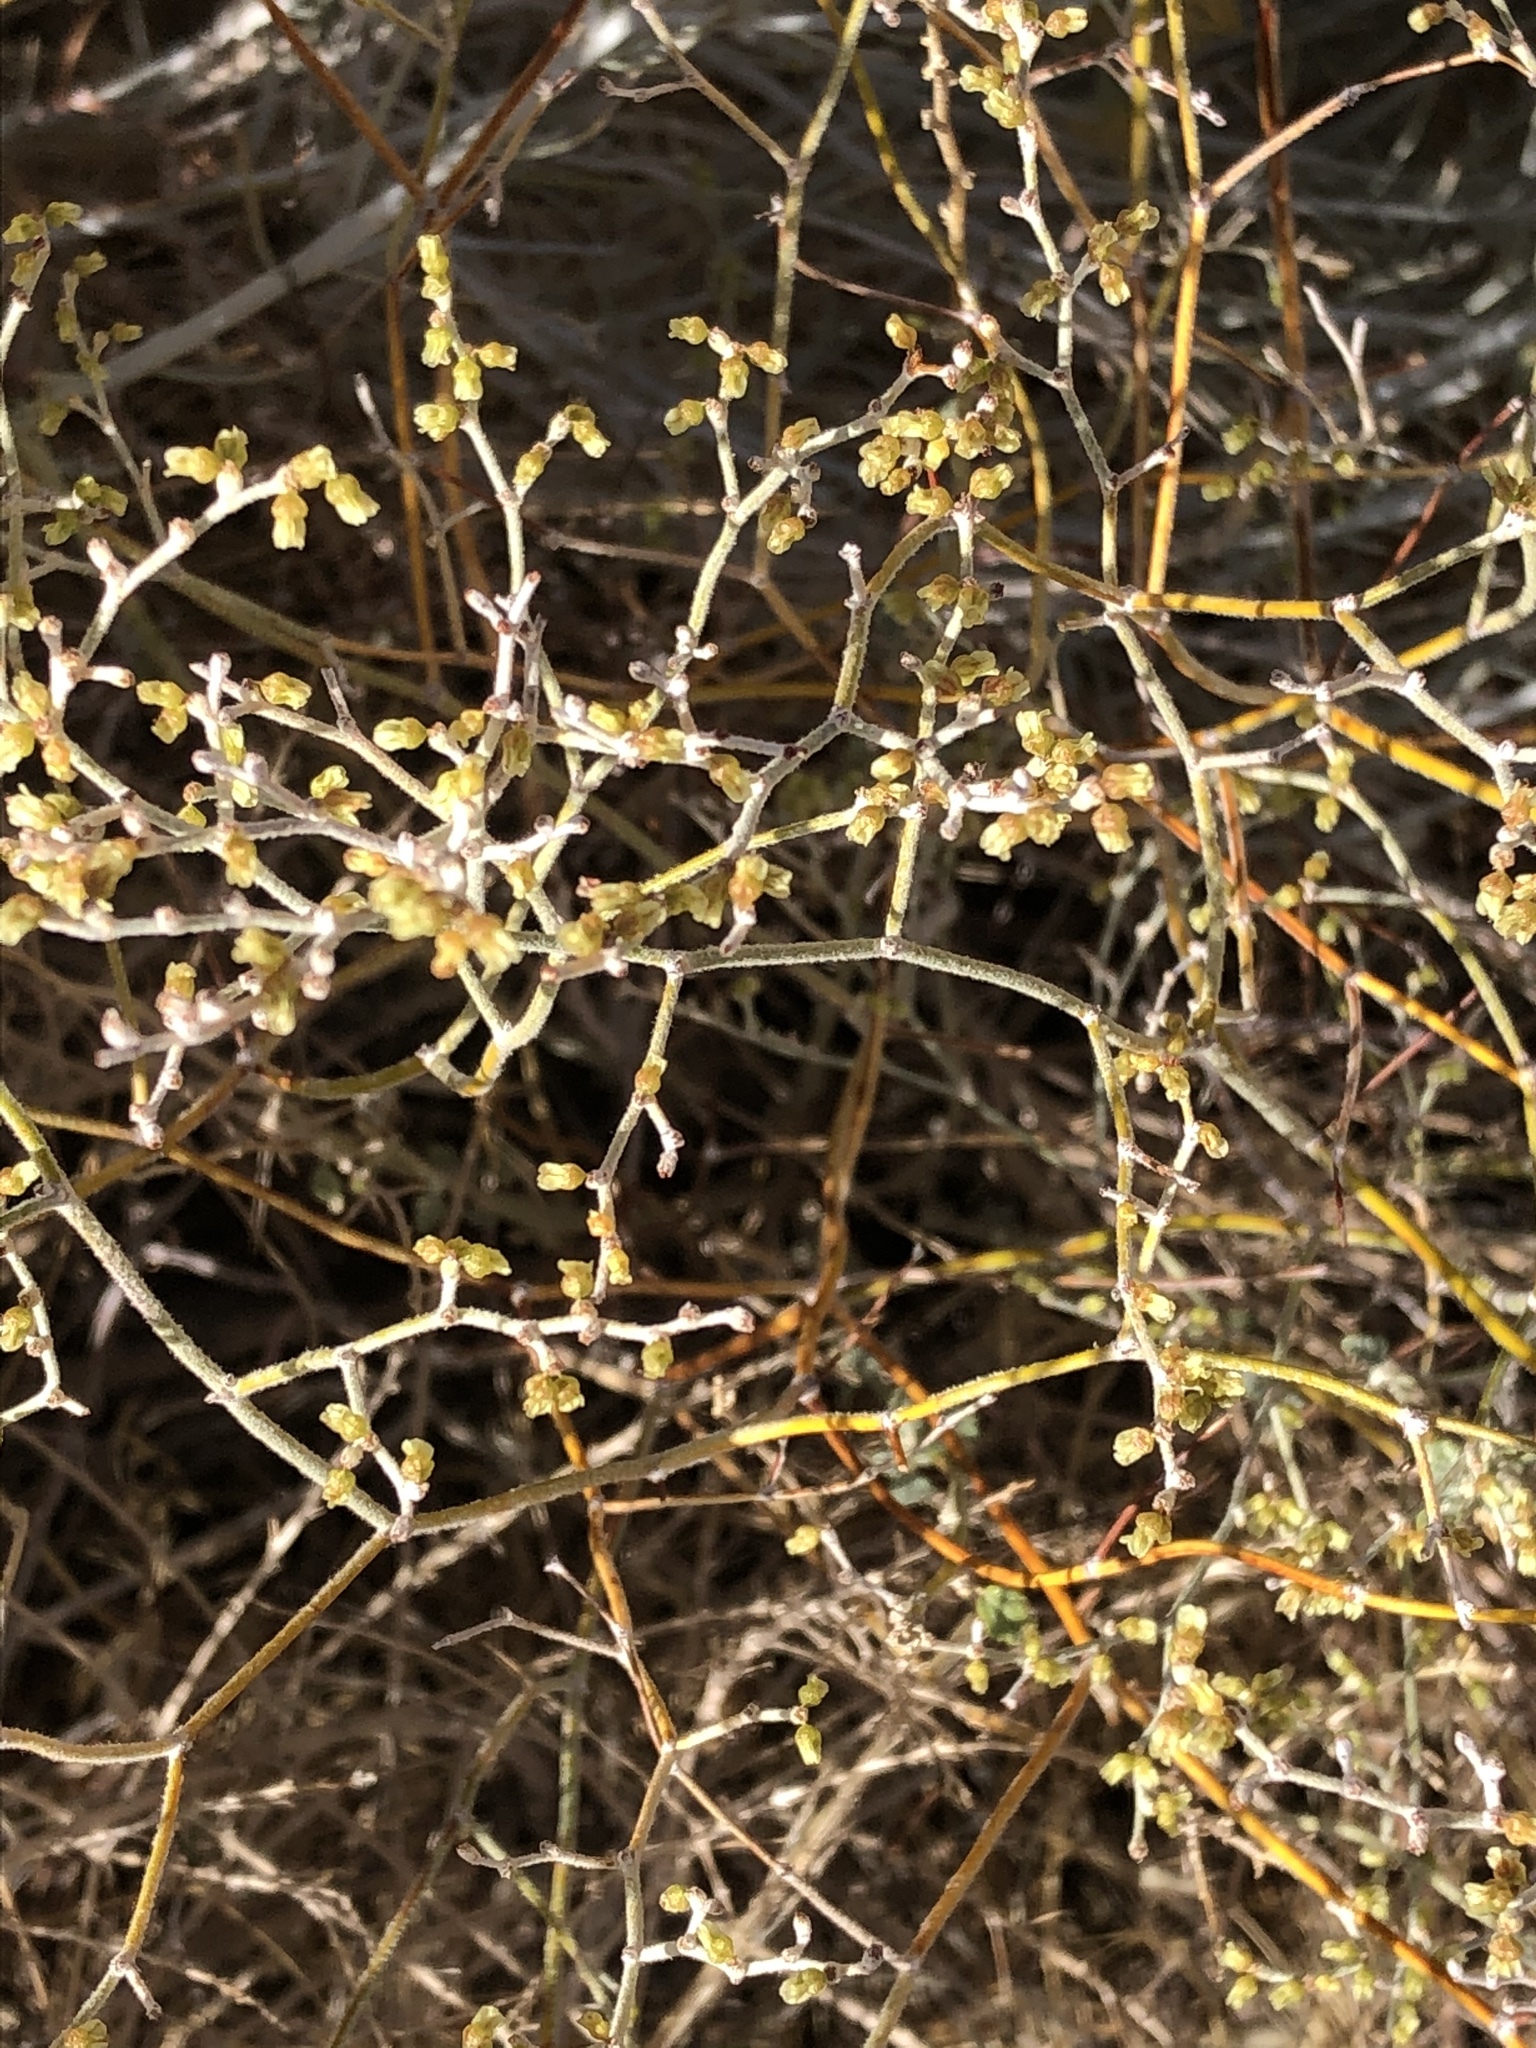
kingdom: Plantae
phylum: Tracheophyta
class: Magnoliopsida
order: Caryophyllales
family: Polygonaceae
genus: Eriogonum
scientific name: Eriogonum leptocladon
